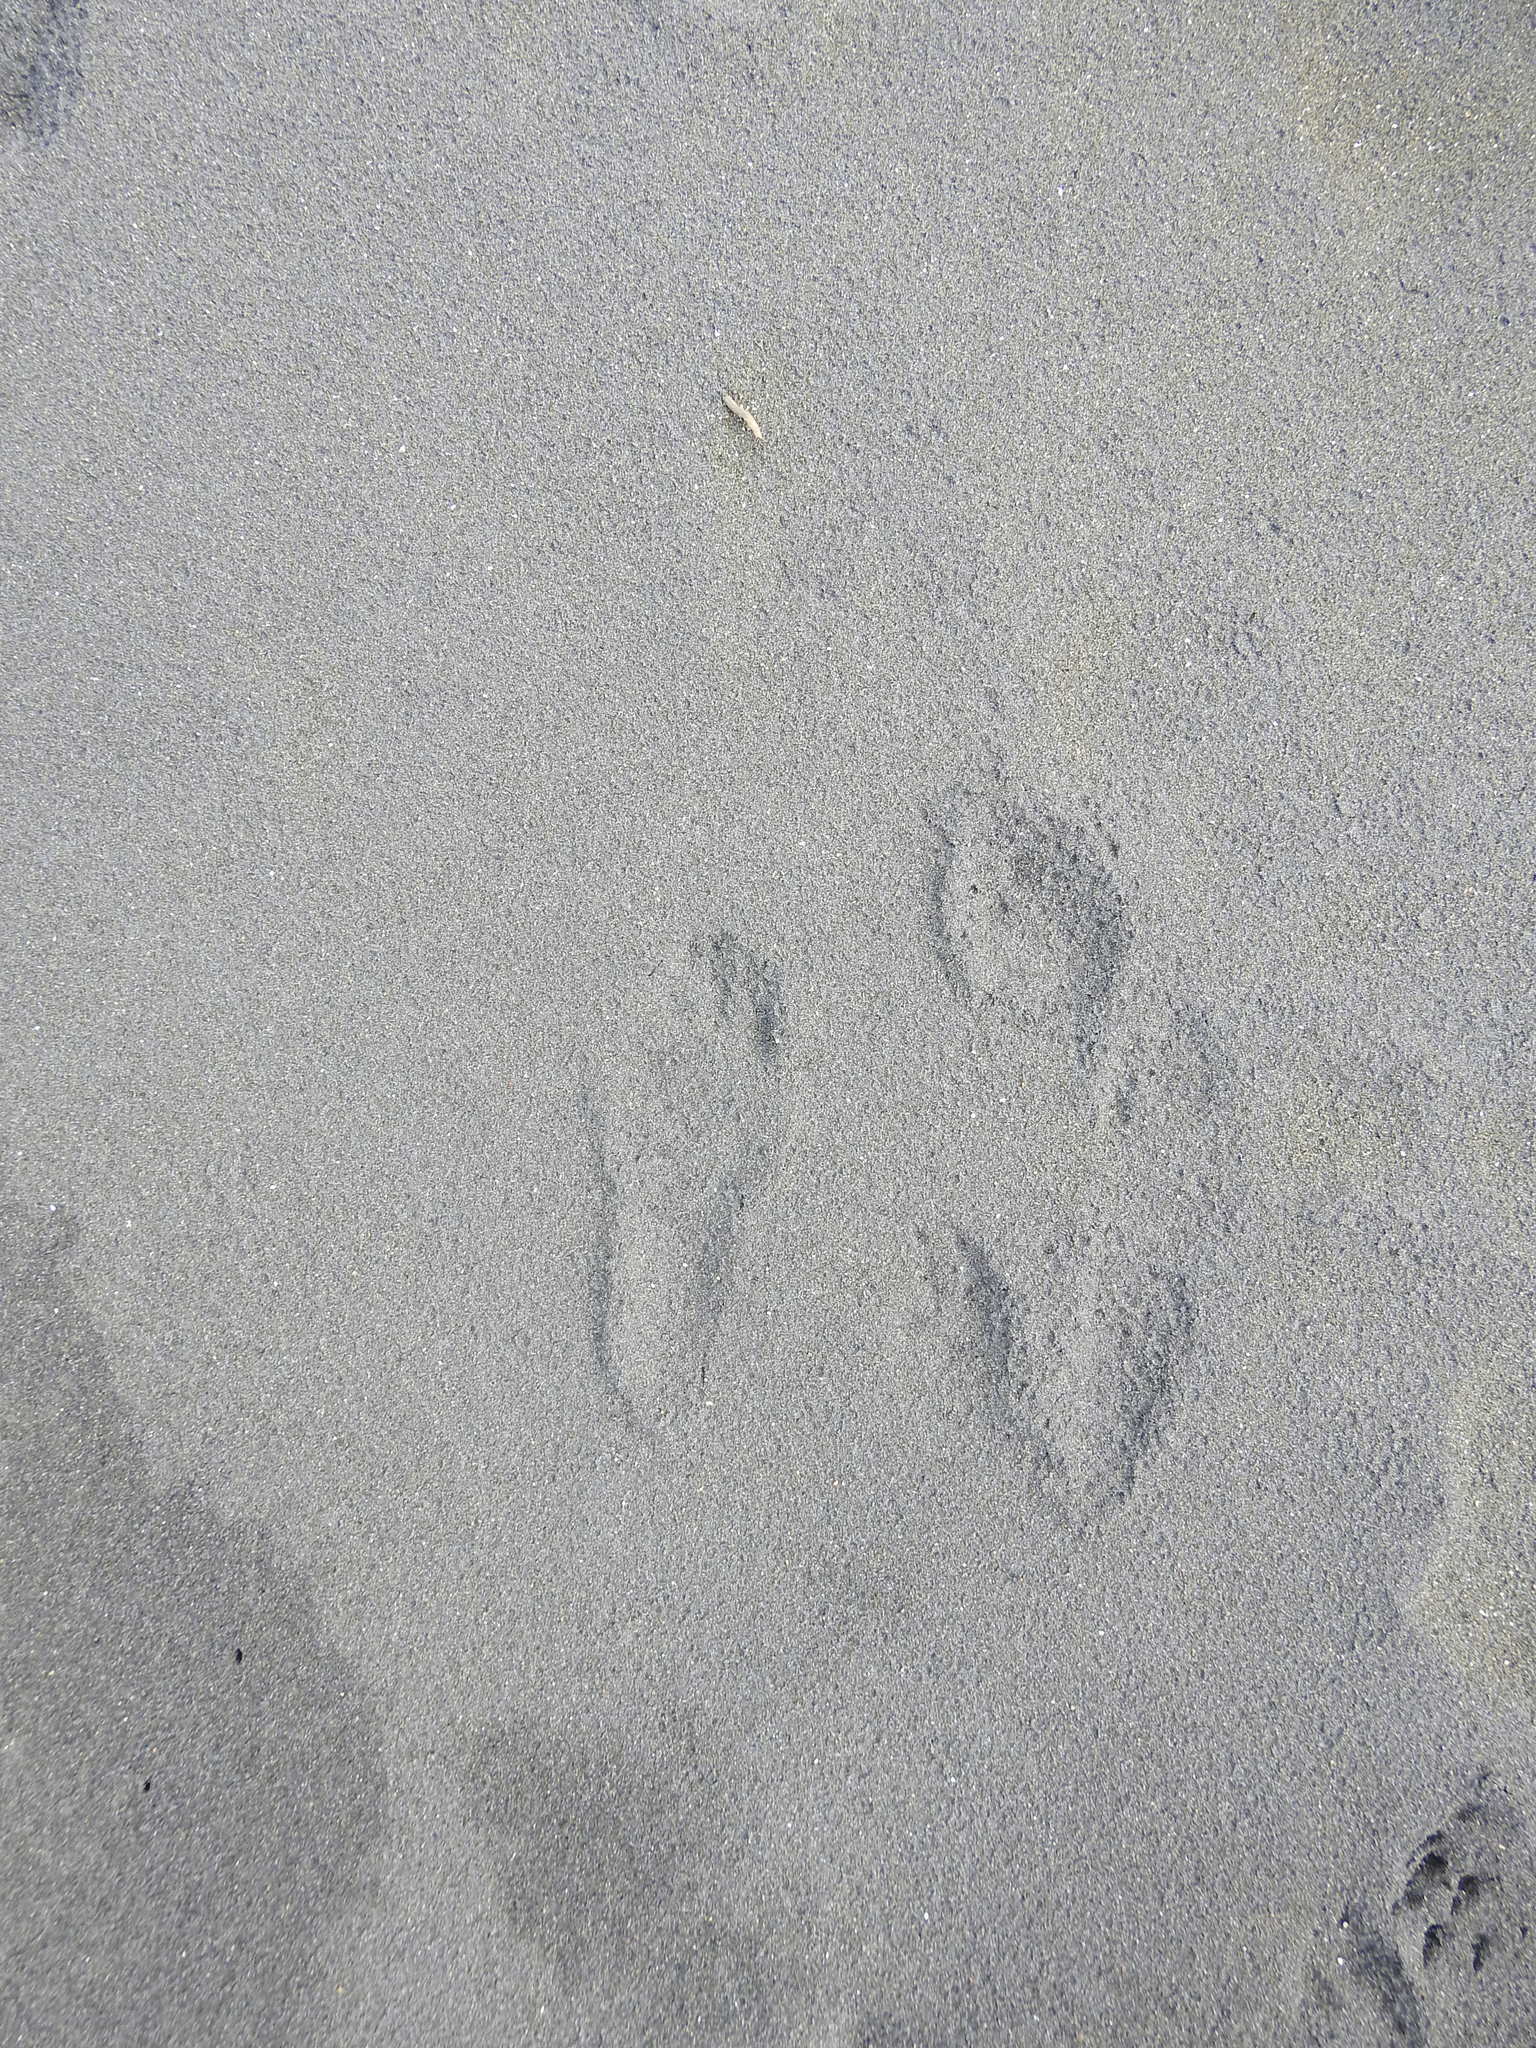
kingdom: Animalia
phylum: Chordata
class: Mammalia
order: Lagomorpha
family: Leporidae
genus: Oryctolagus
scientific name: Oryctolagus cuniculus
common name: European rabbit
